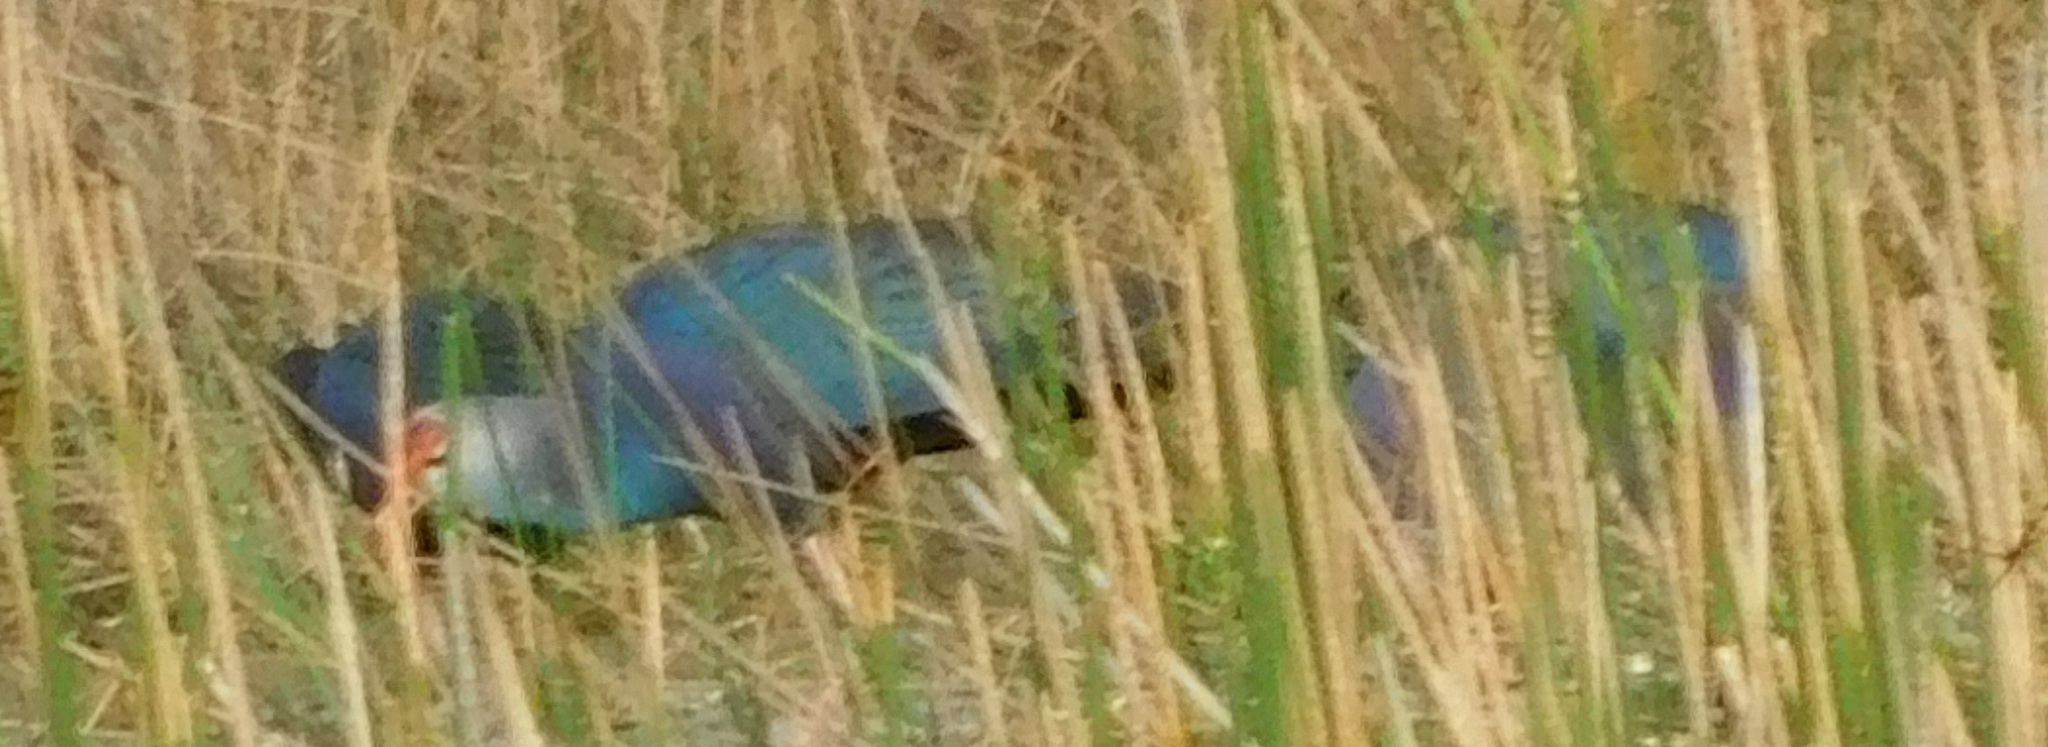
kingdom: Animalia
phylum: Chordata
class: Aves
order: Gruiformes
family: Rallidae
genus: Porphyrio
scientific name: Porphyrio porphyrio
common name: Purple swamphen
